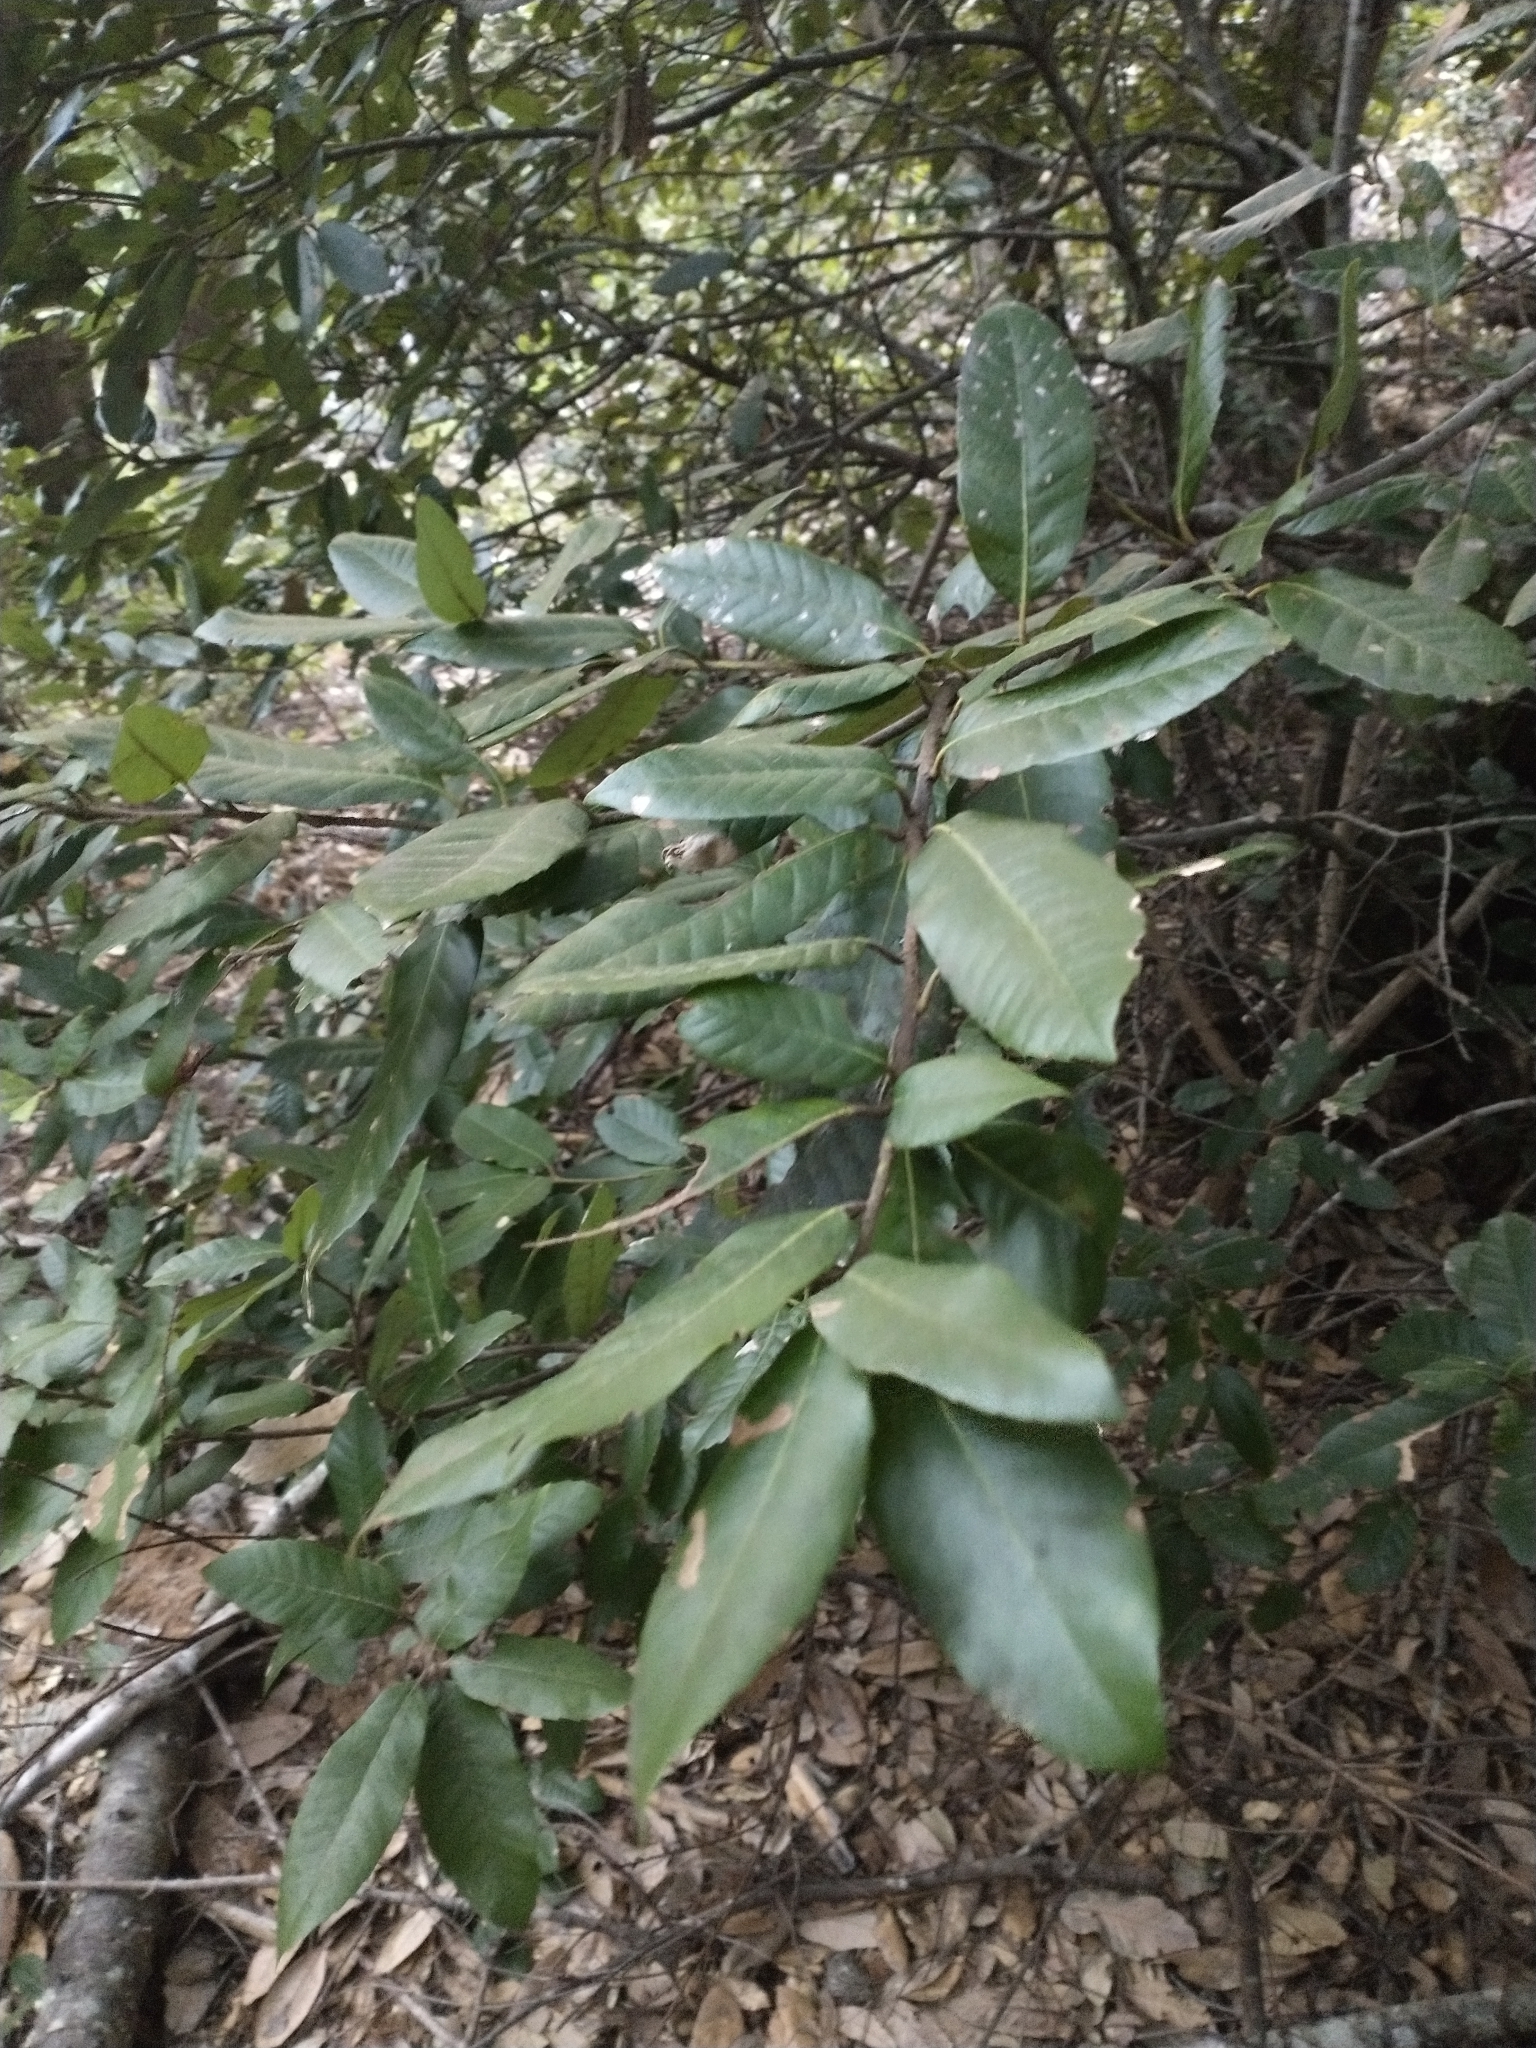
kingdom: Plantae
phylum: Tracheophyta
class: Magnoliopsida
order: Fagales
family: Fagaceae
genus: Notholithocarpus
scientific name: Notholithocarpus densiflorus
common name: Tan bark oak
